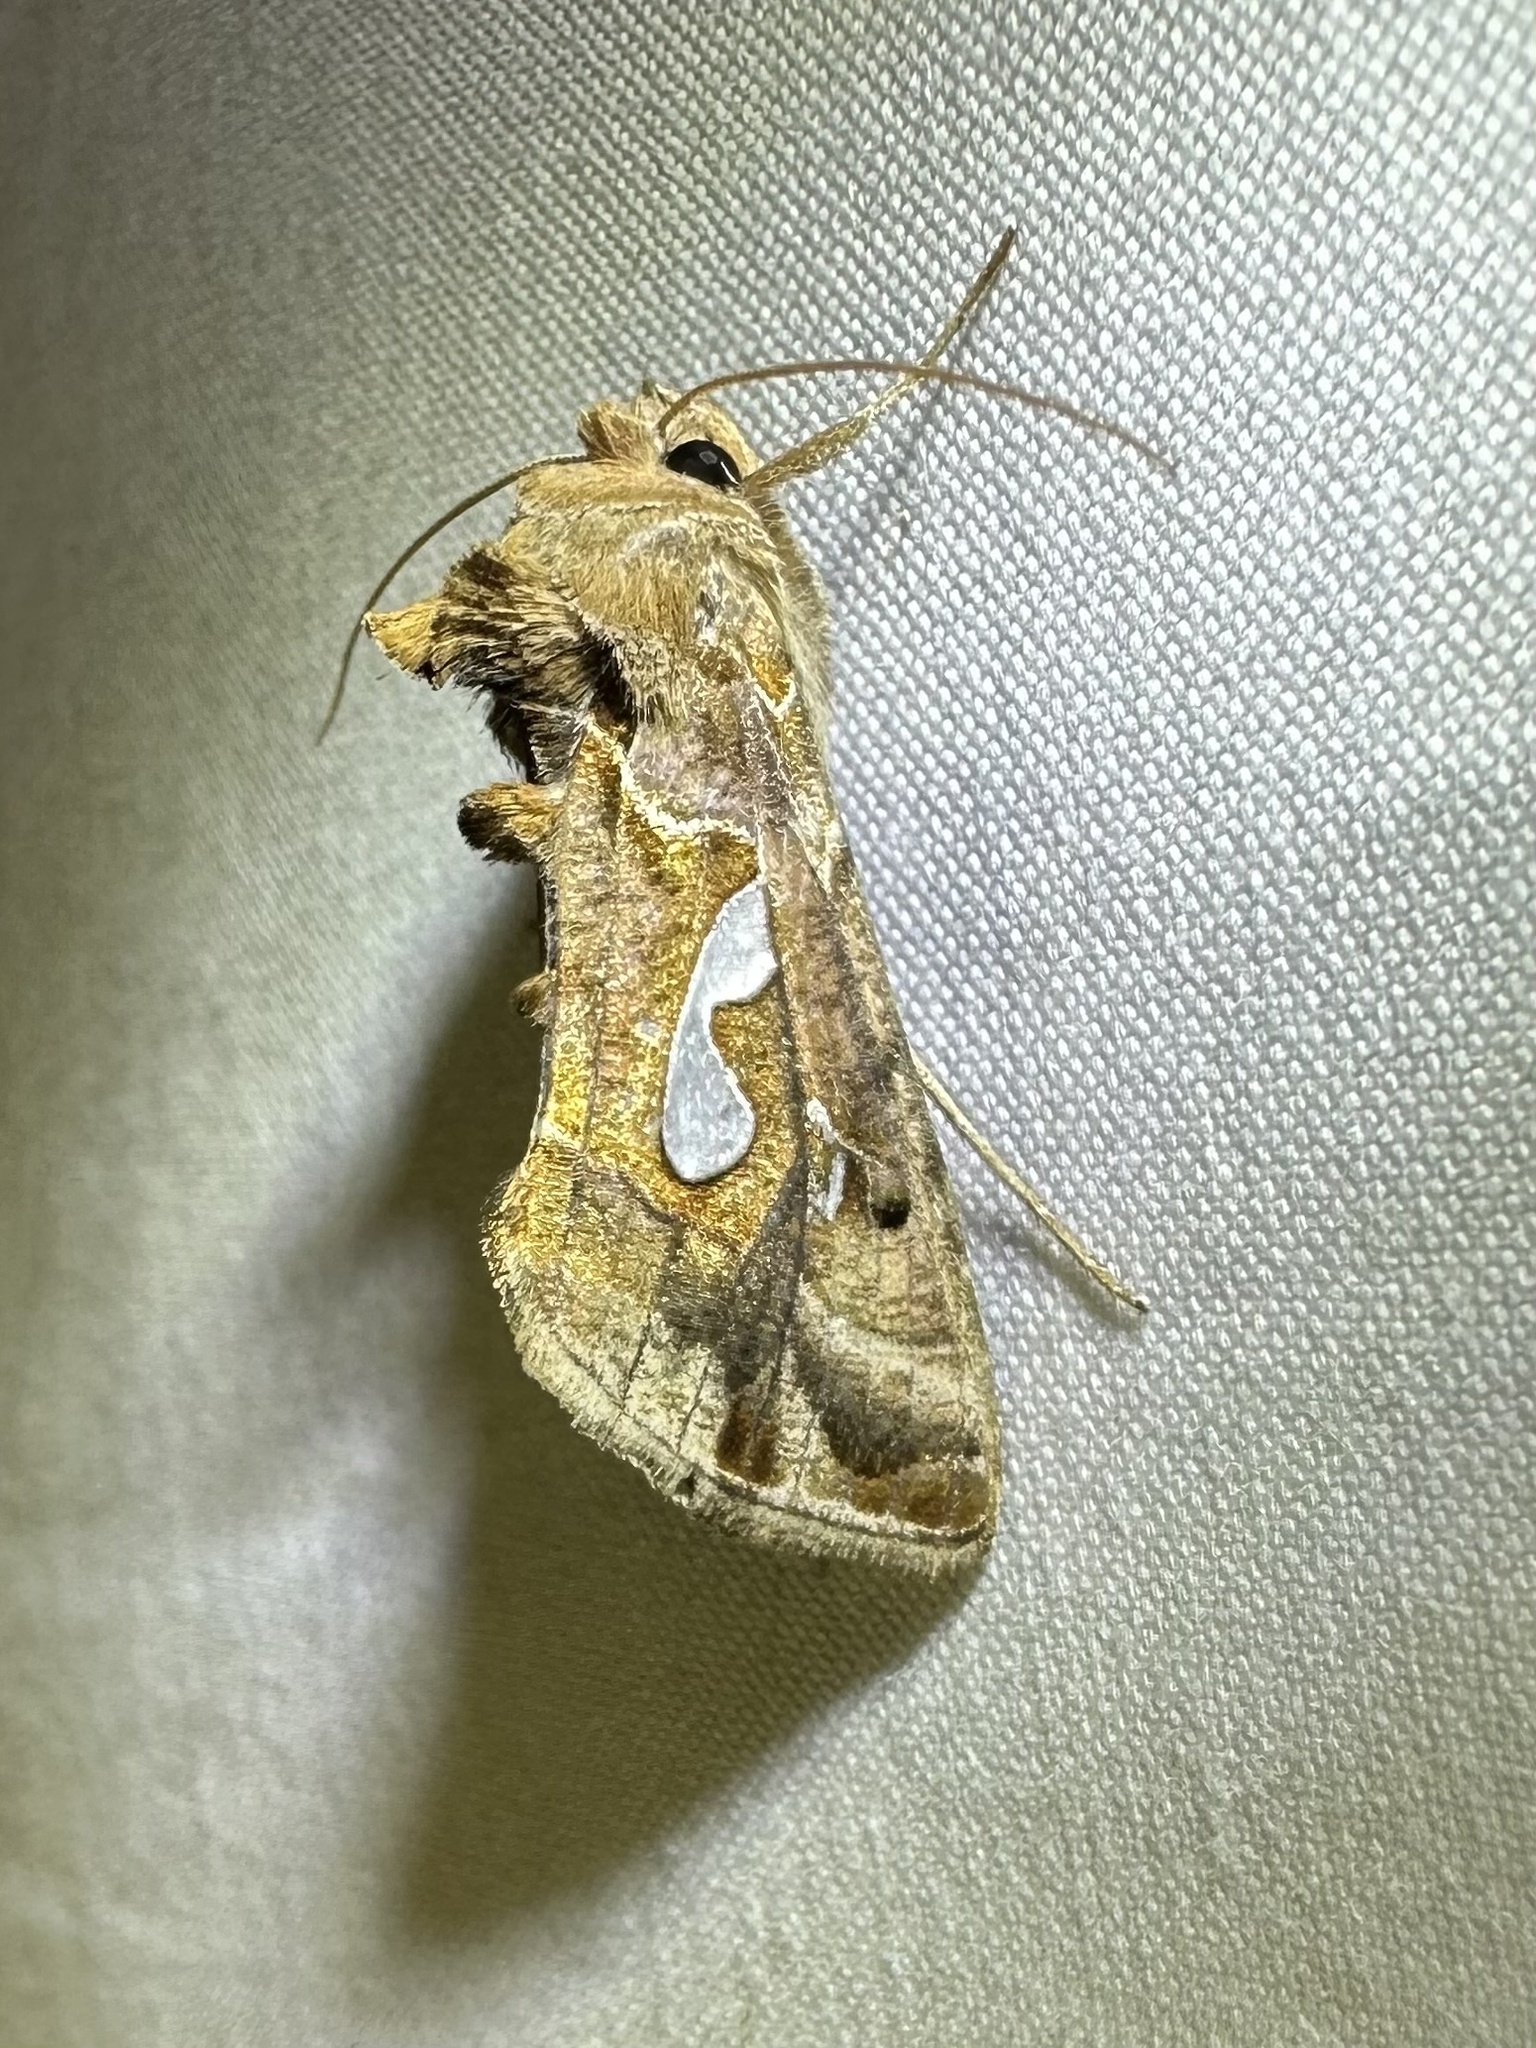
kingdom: Animalia
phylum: Arthropoda
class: Insecta
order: Lepidoptera
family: Noctuidae
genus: Megalographa
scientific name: Megalographa biloba
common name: Cutworm
